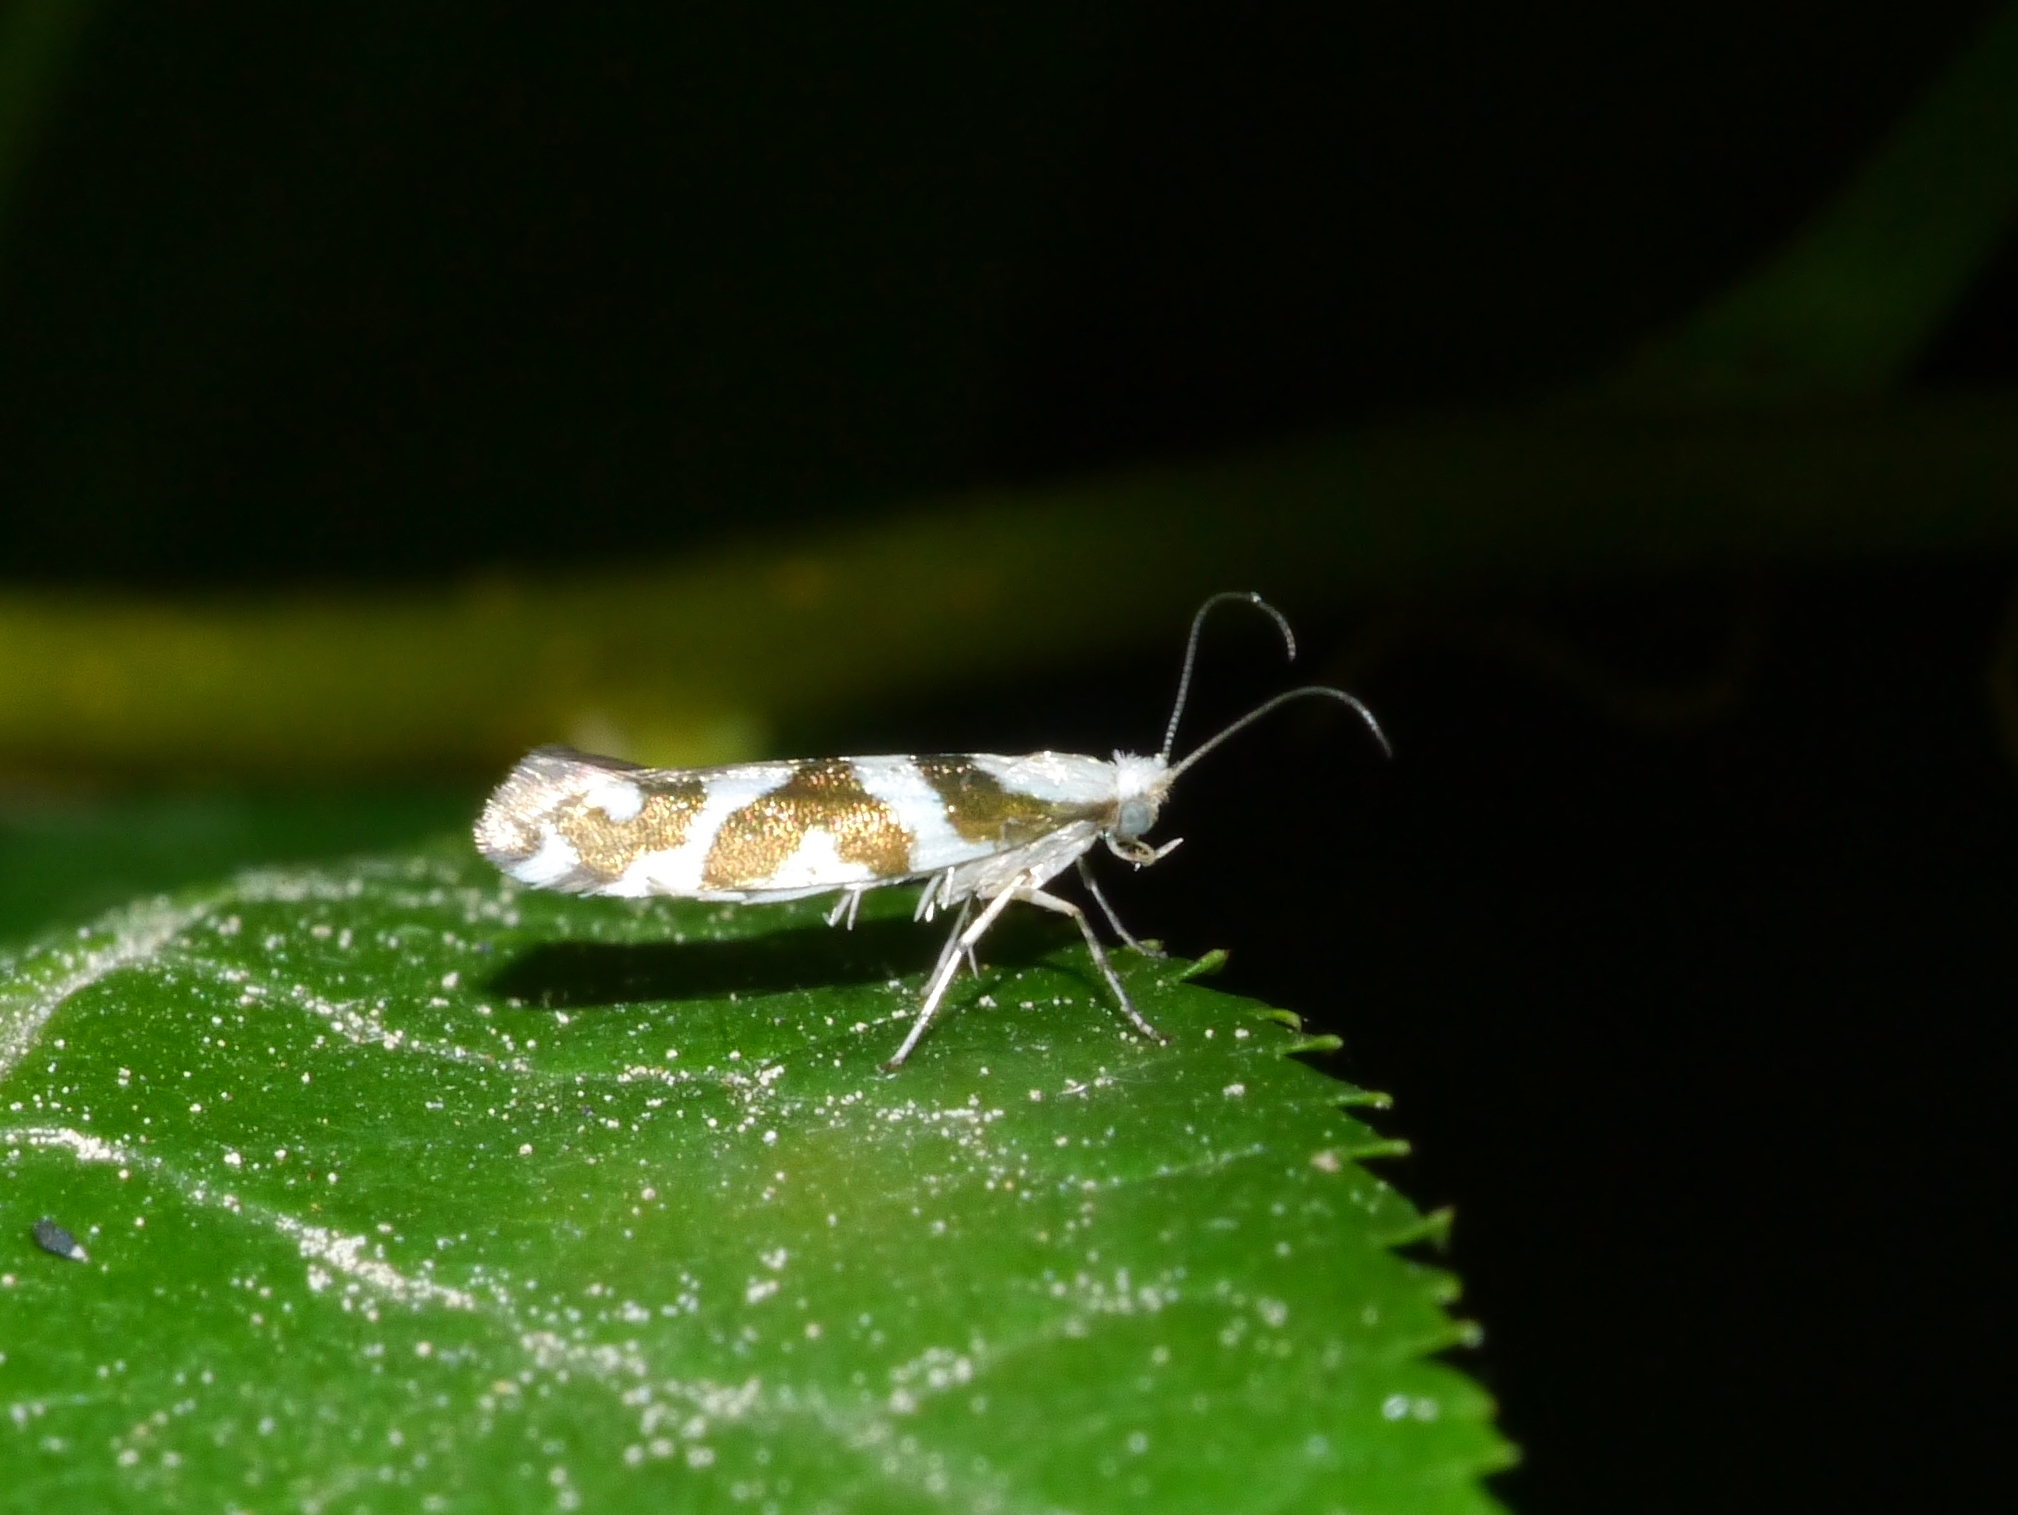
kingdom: Animalia
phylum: Arthropoda
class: Insecta
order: Lepidoptera
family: Argyresthiidae
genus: Argyresthia
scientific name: Argyresthia goedartella
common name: Golden argent
